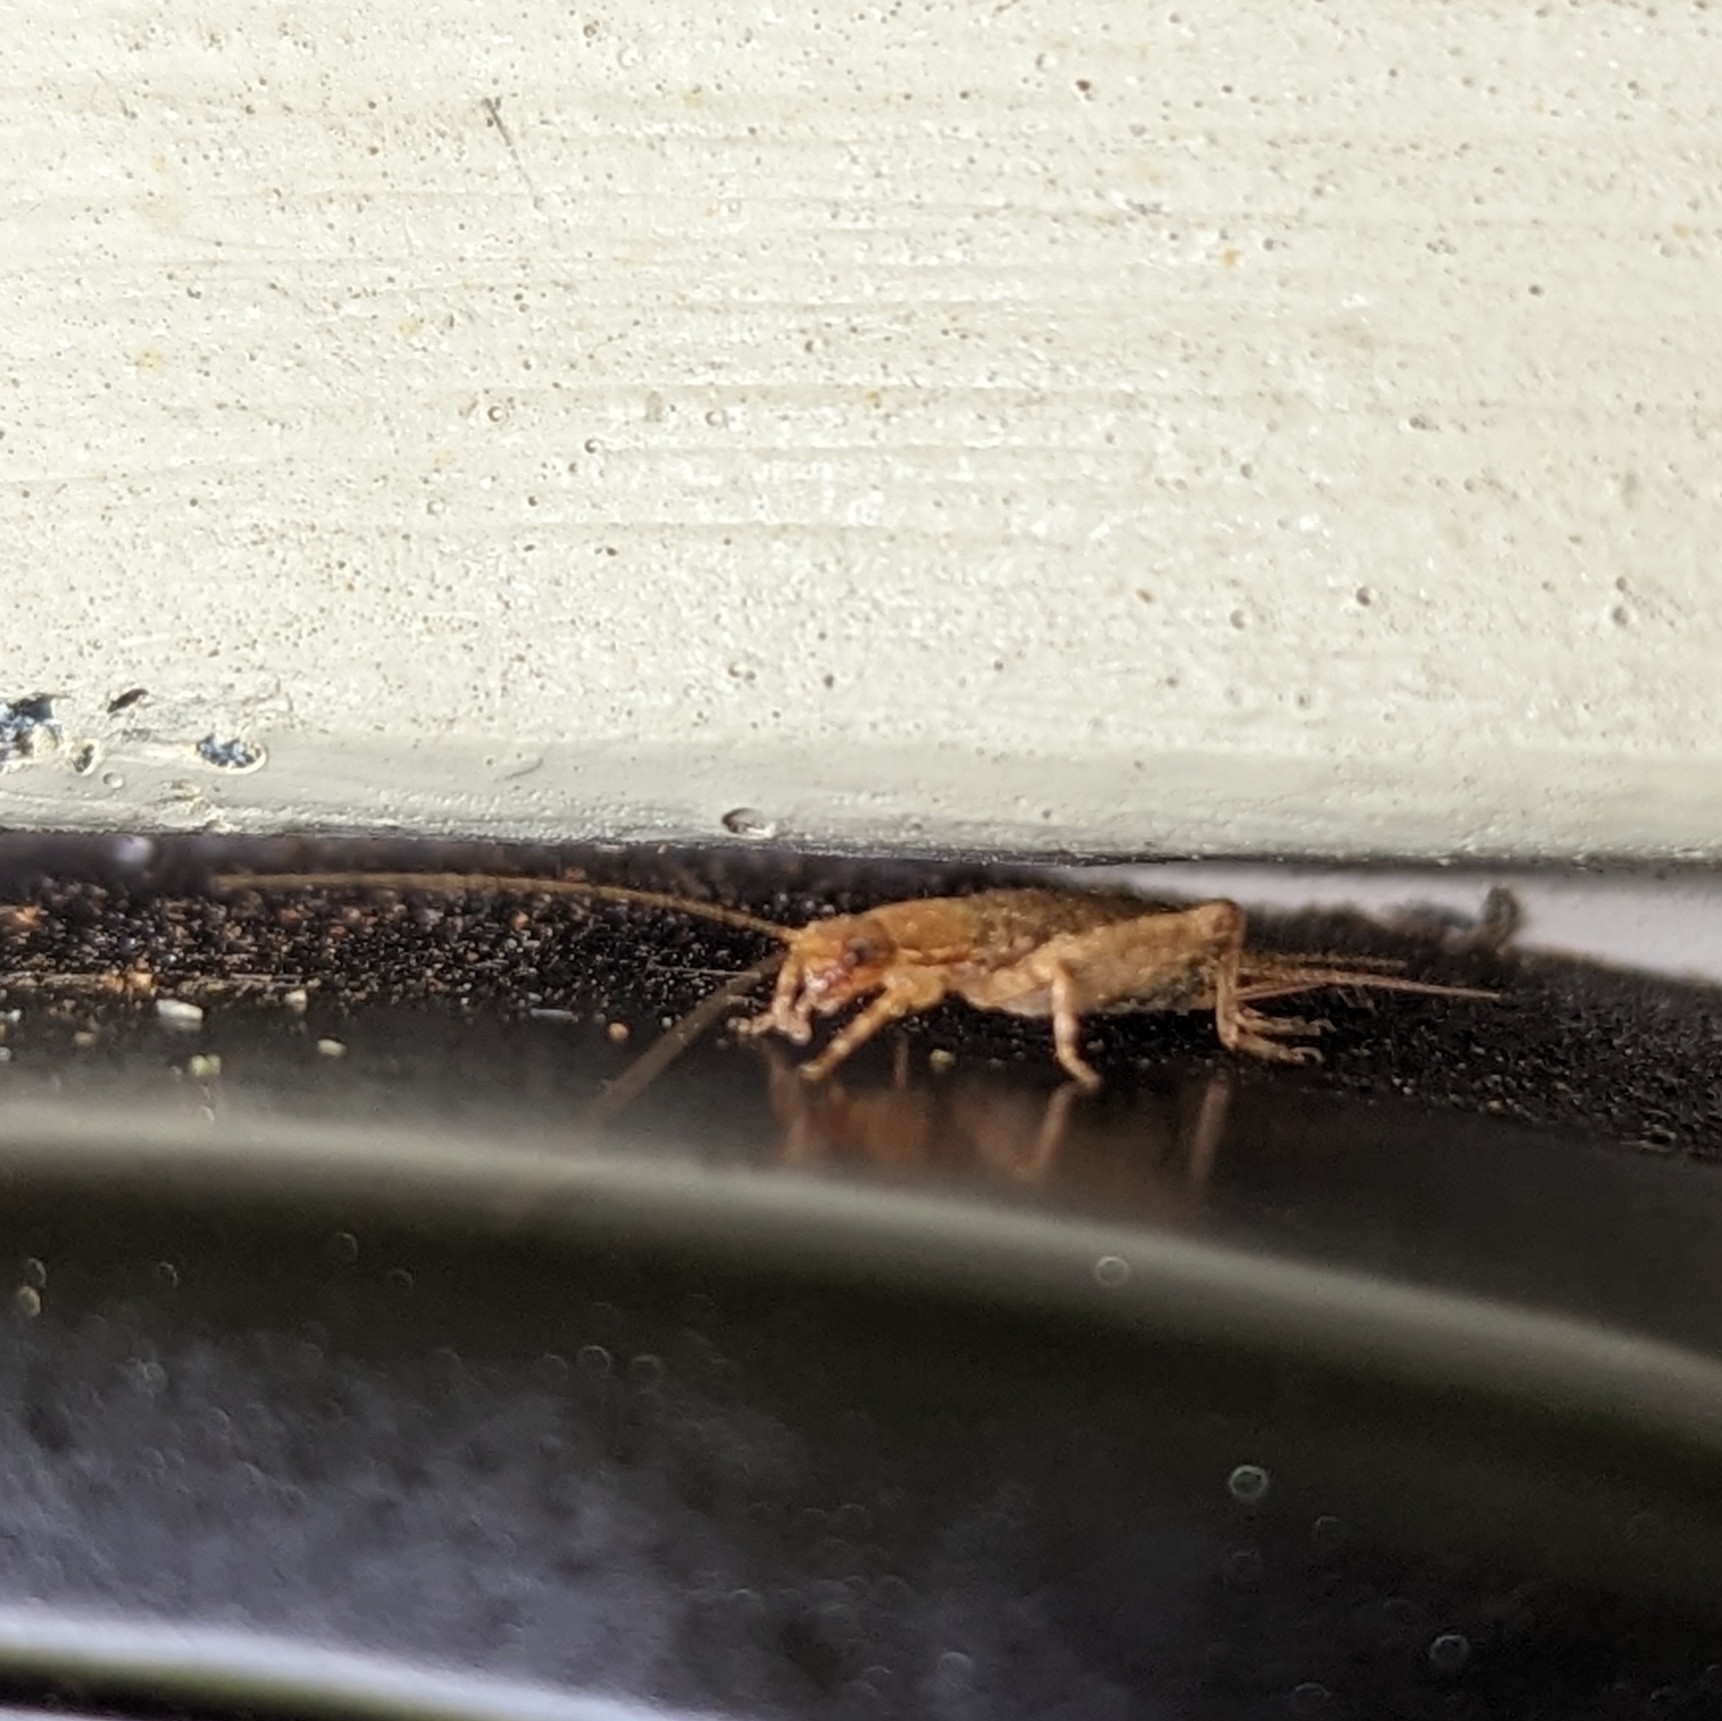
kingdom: Animalia
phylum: Arthropoda
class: Insecta
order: Orthoptera
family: Mogoplistidae
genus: Ornebius
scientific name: Ornebius aperta
